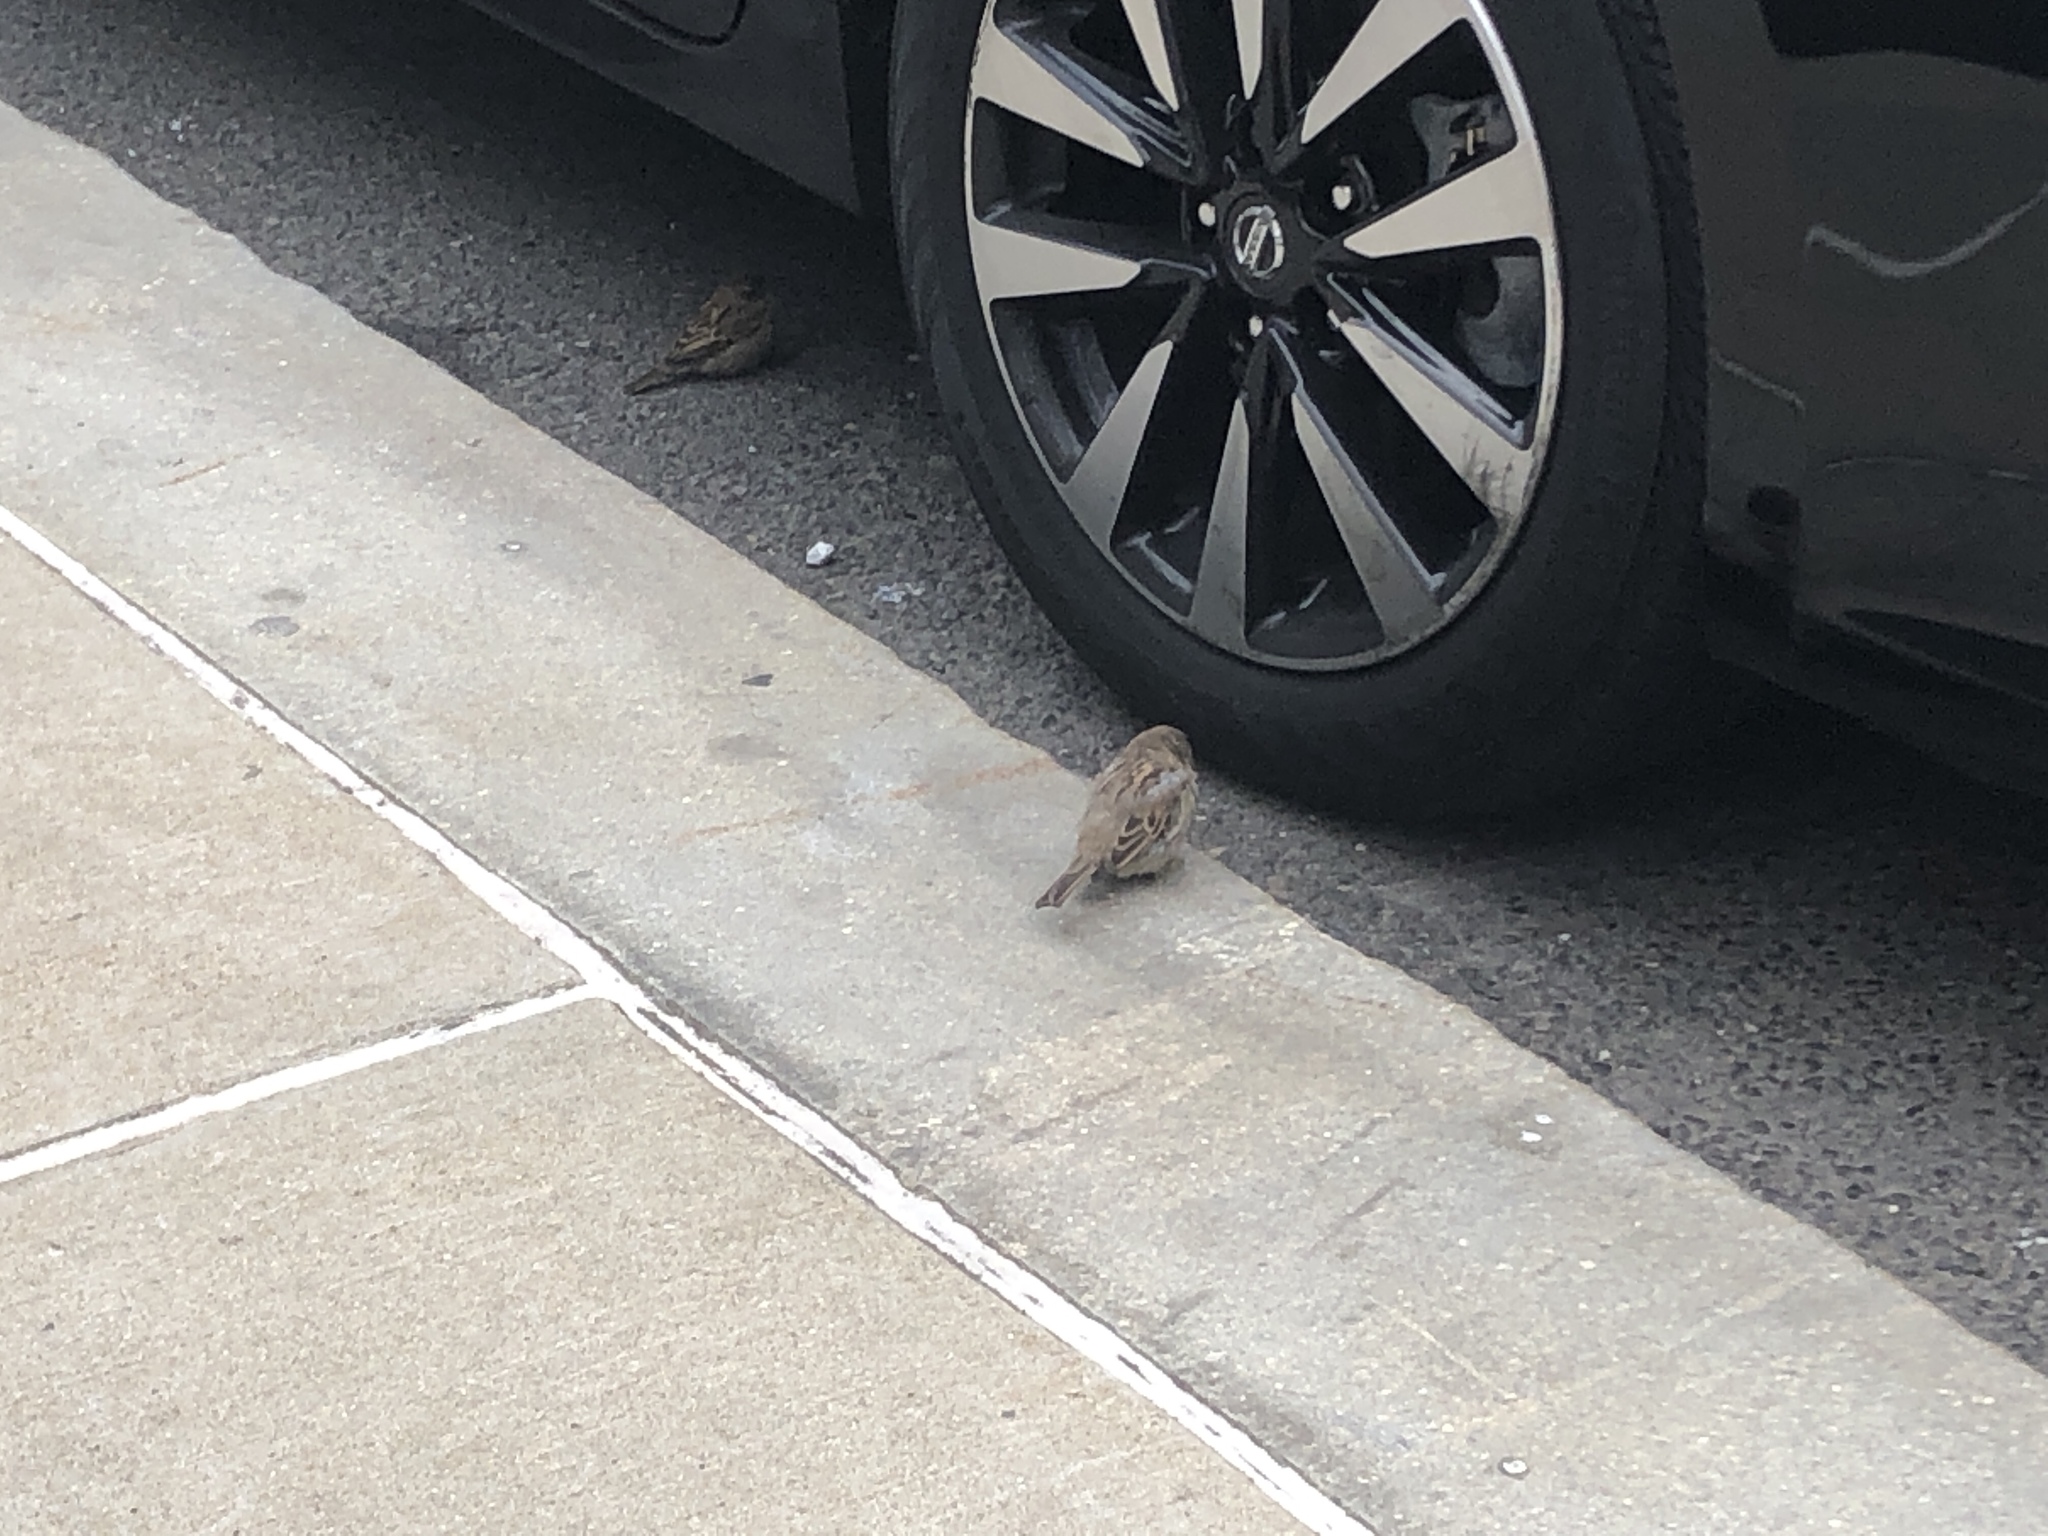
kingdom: Animalia
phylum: Chordata
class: Aves
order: Passeriformes
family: Passeridae
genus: Passer
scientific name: Passer domesticus
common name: House sparrow
